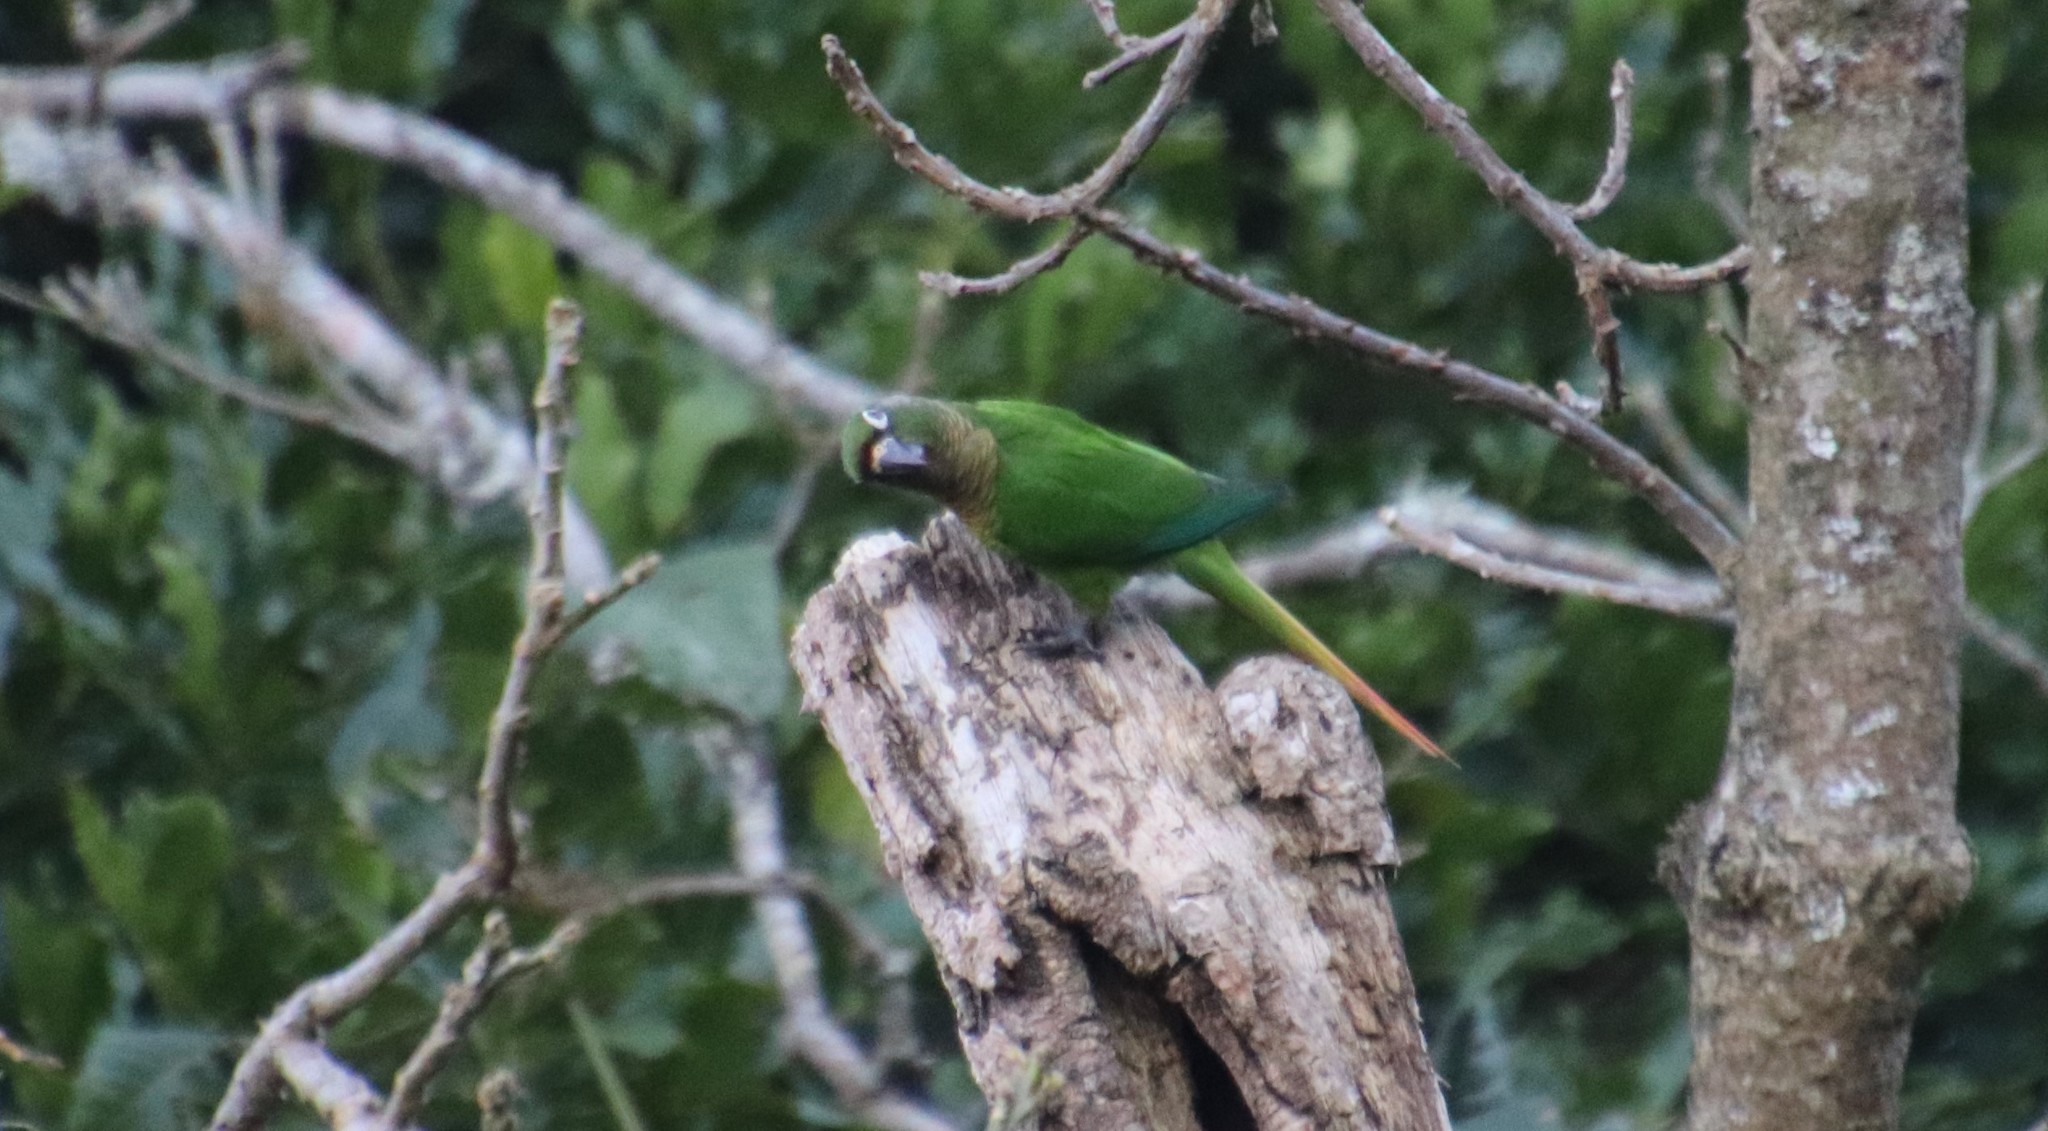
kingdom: Animalia
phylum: Chordata
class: Aves
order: Psittaciformes
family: Psittacidae
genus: Pyrrhura
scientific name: Pyrrhura frontalis
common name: Maroon-bellied parakeet
